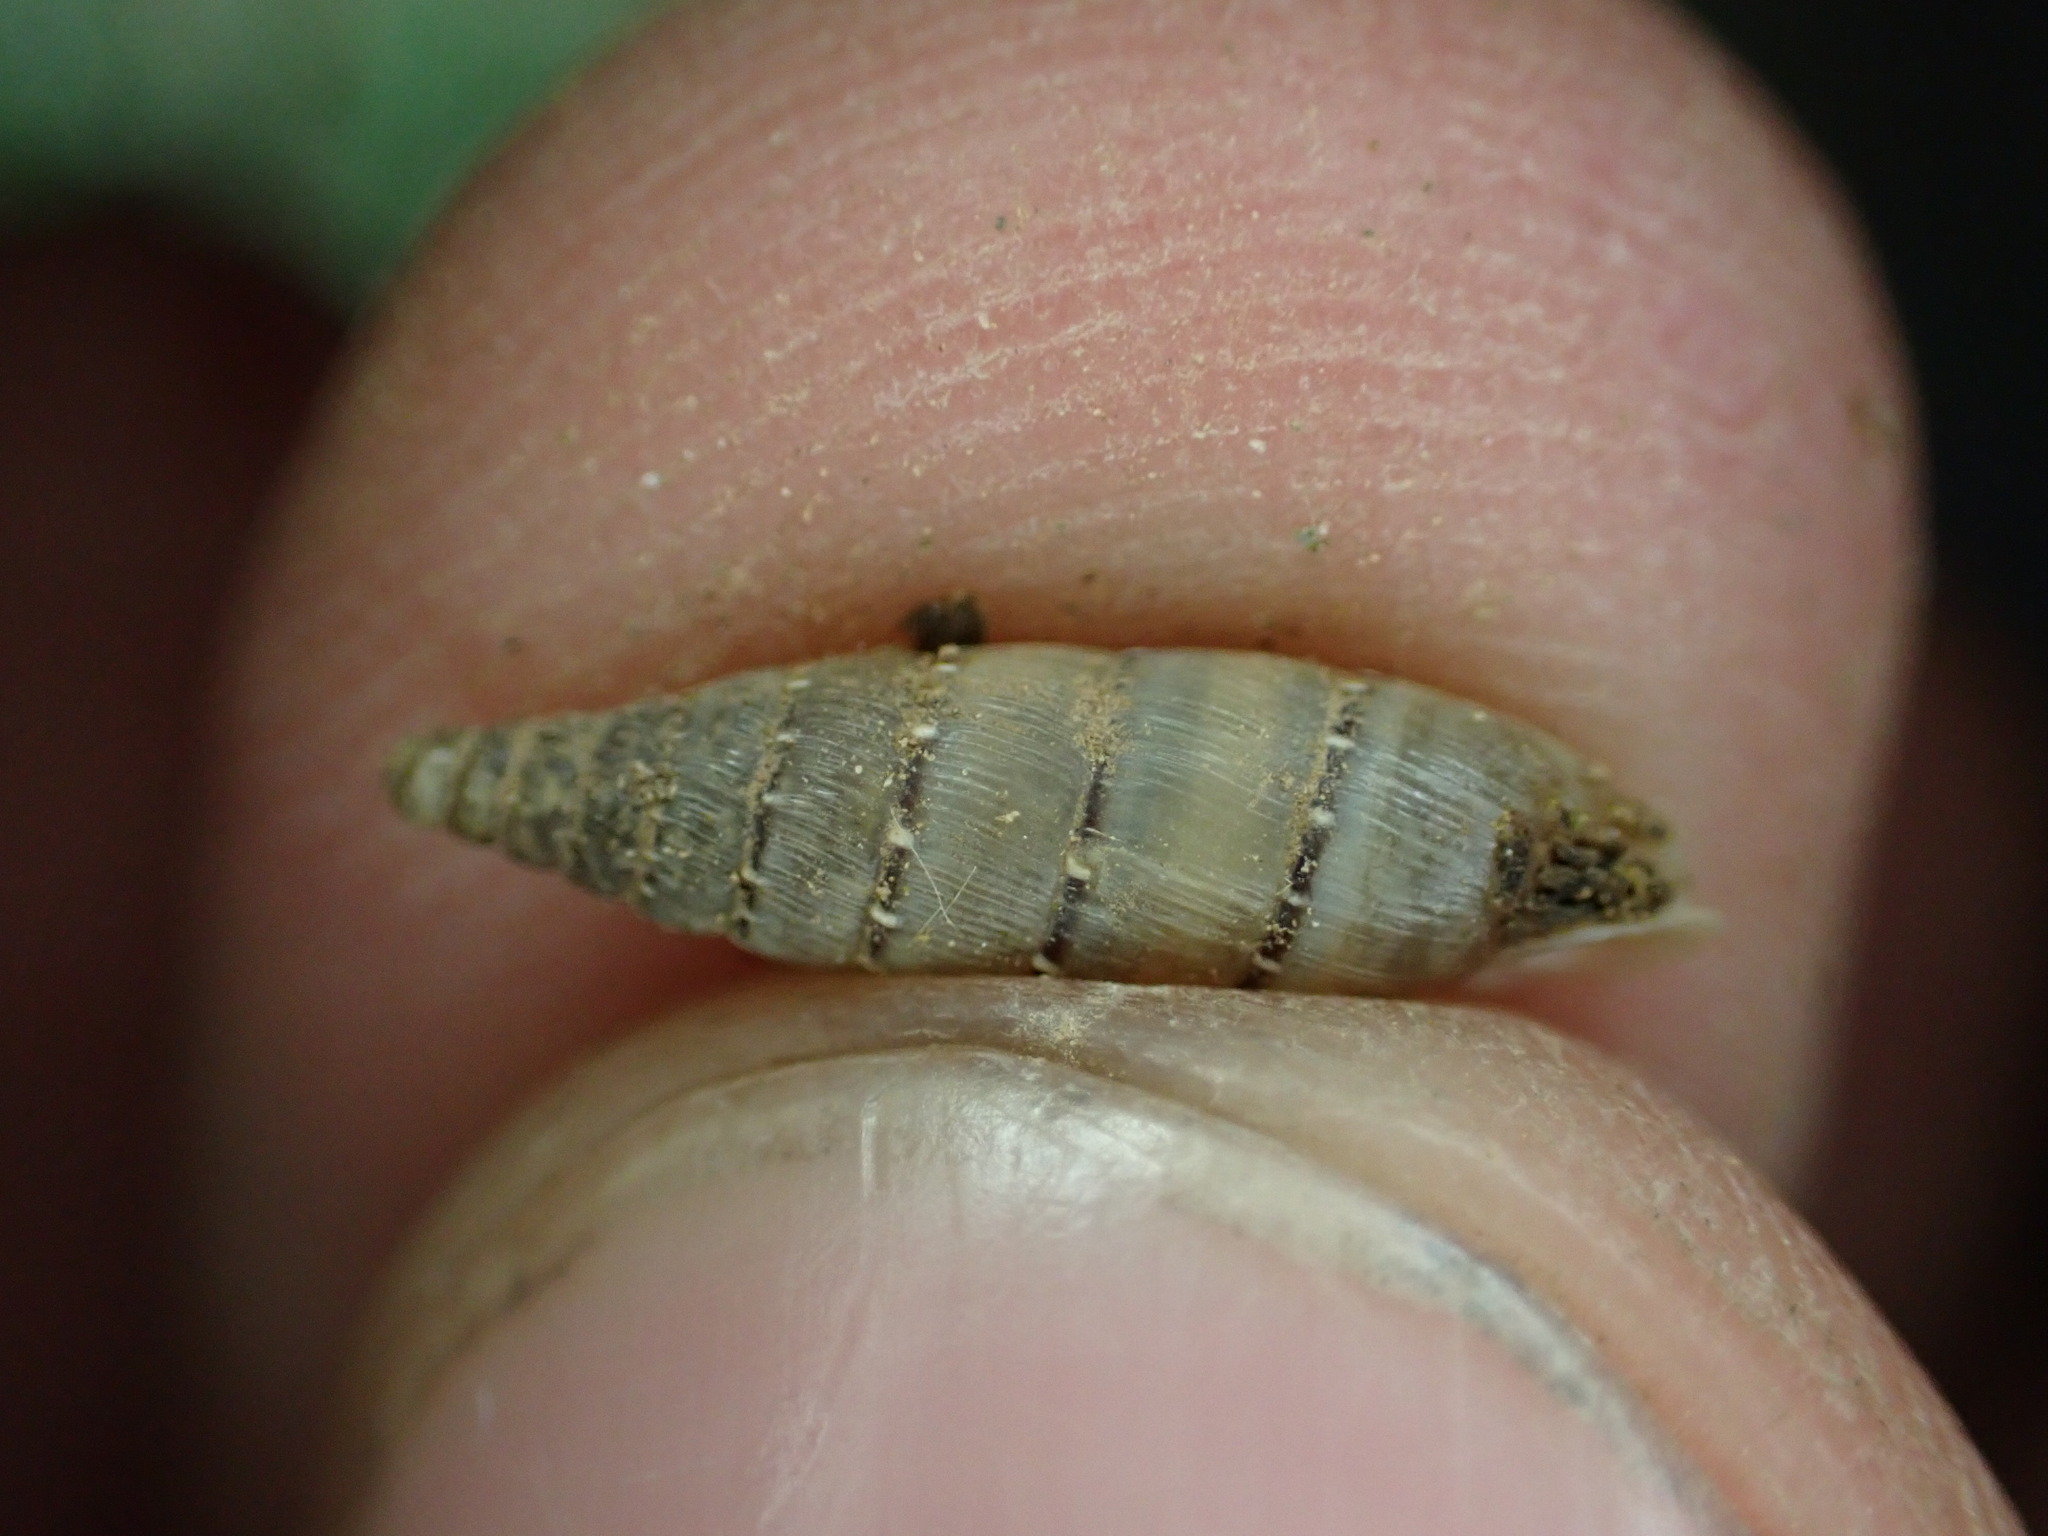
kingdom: Animalia
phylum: Mollusca
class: Gastropoda
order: Stylommatophora
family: Clausiliidae
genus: Papillifera
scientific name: Papillifera papillaris
